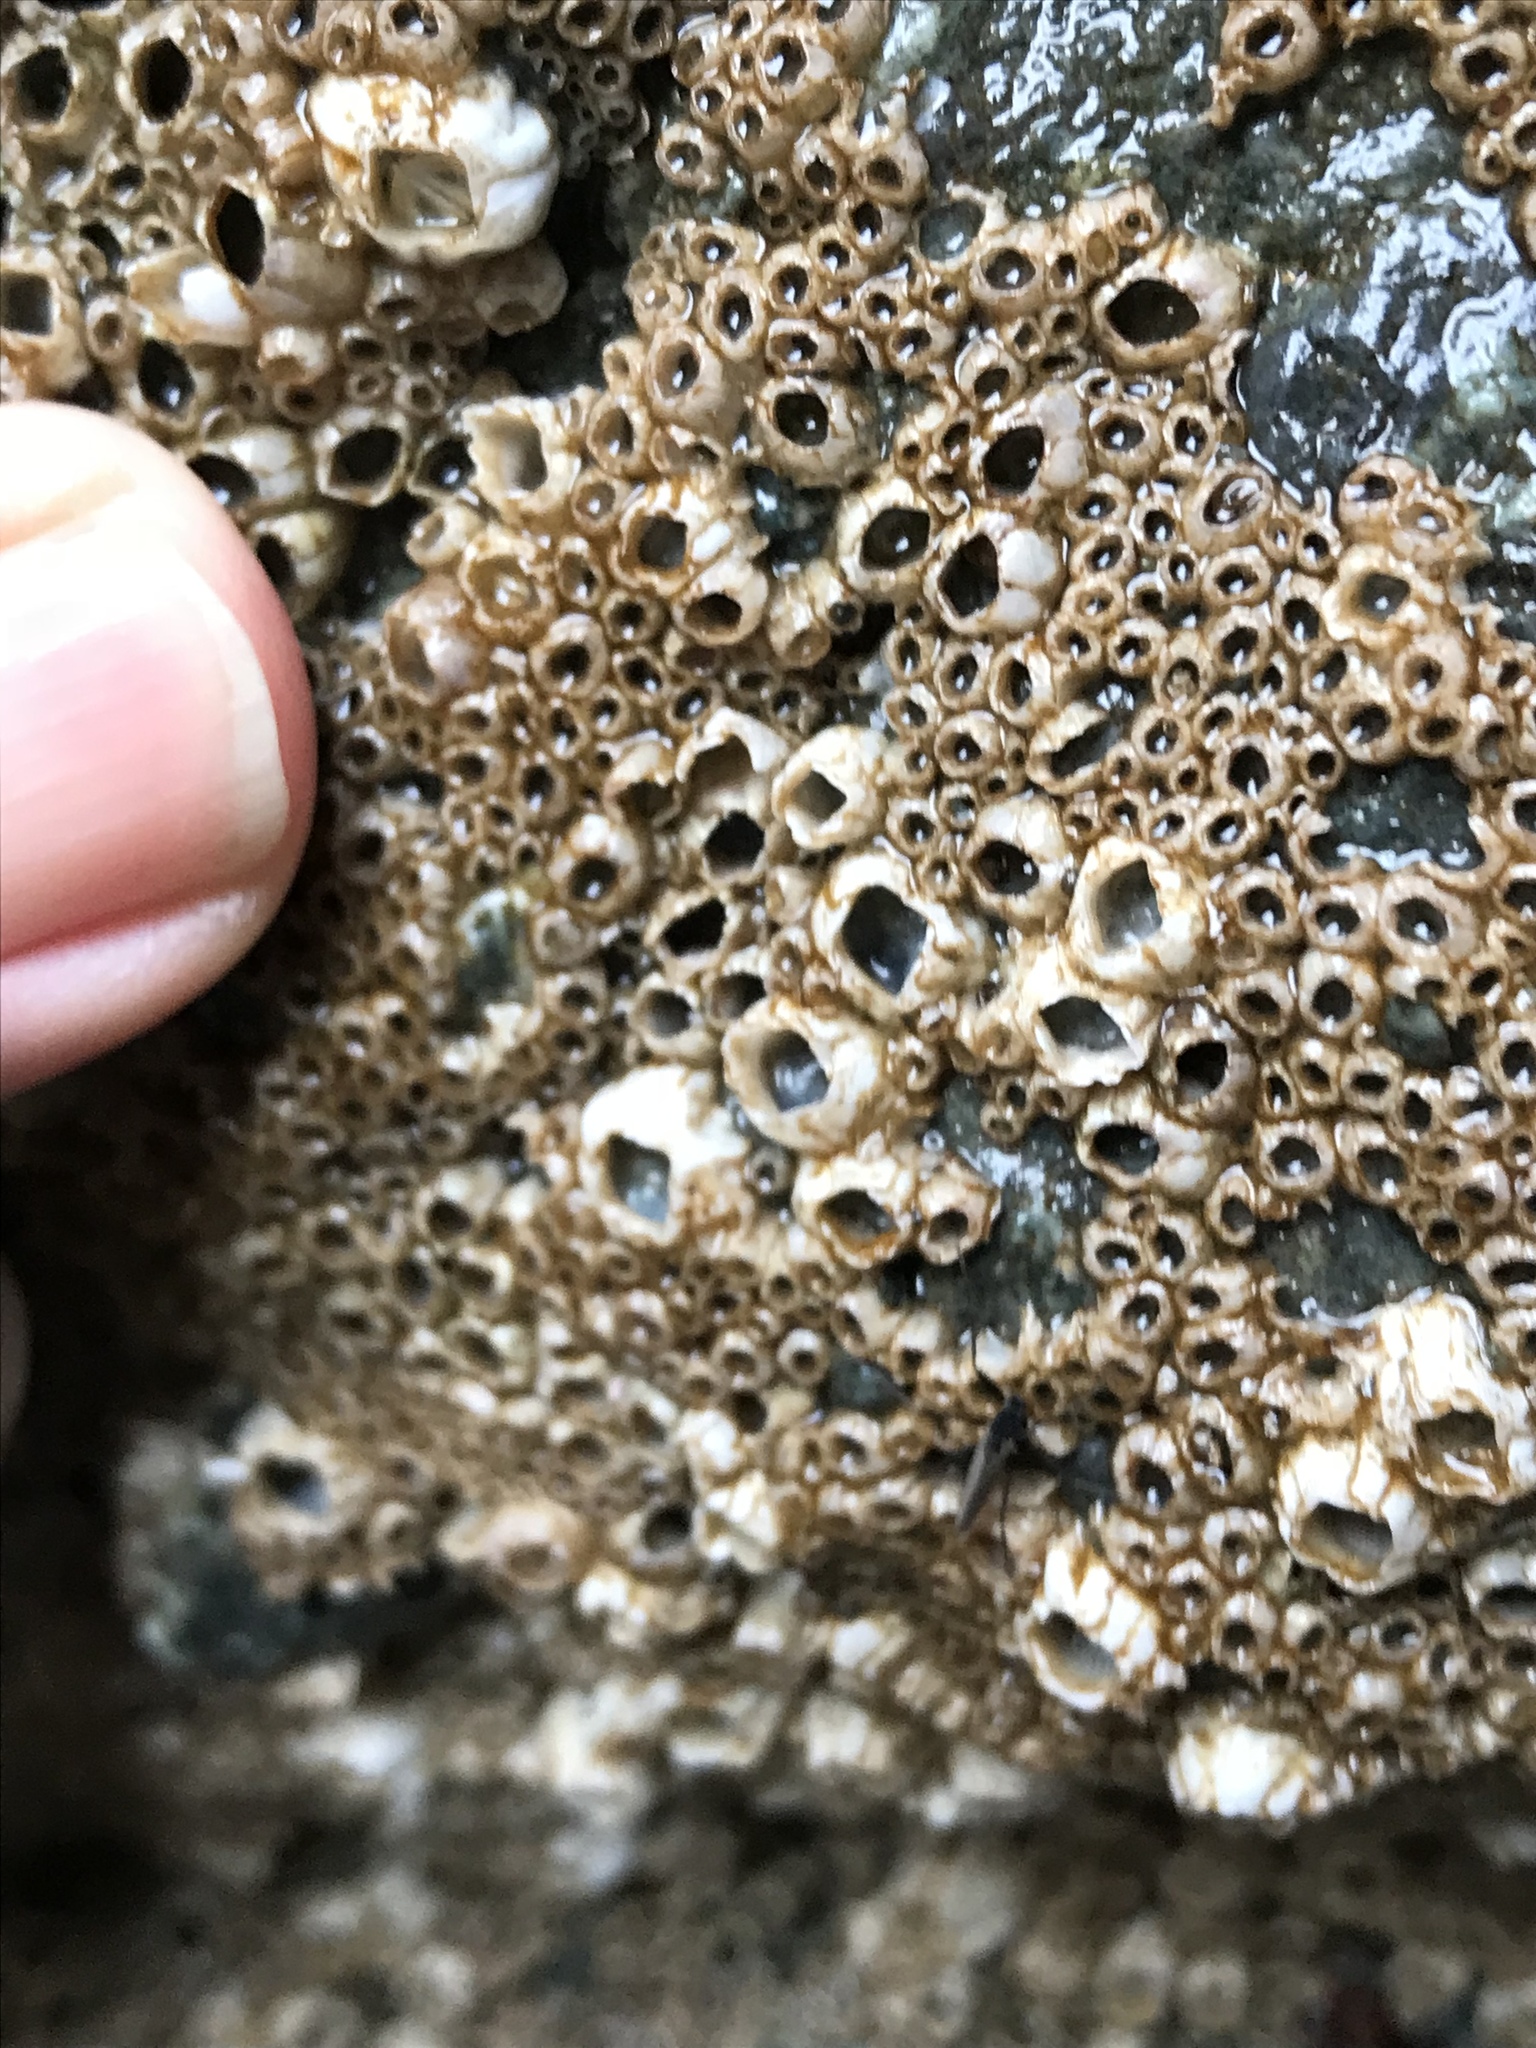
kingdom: Animalia
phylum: Arthropoda
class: Maxillopoda
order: Sessilia
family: Balanidae
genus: Balanus
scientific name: Balanus glandula
